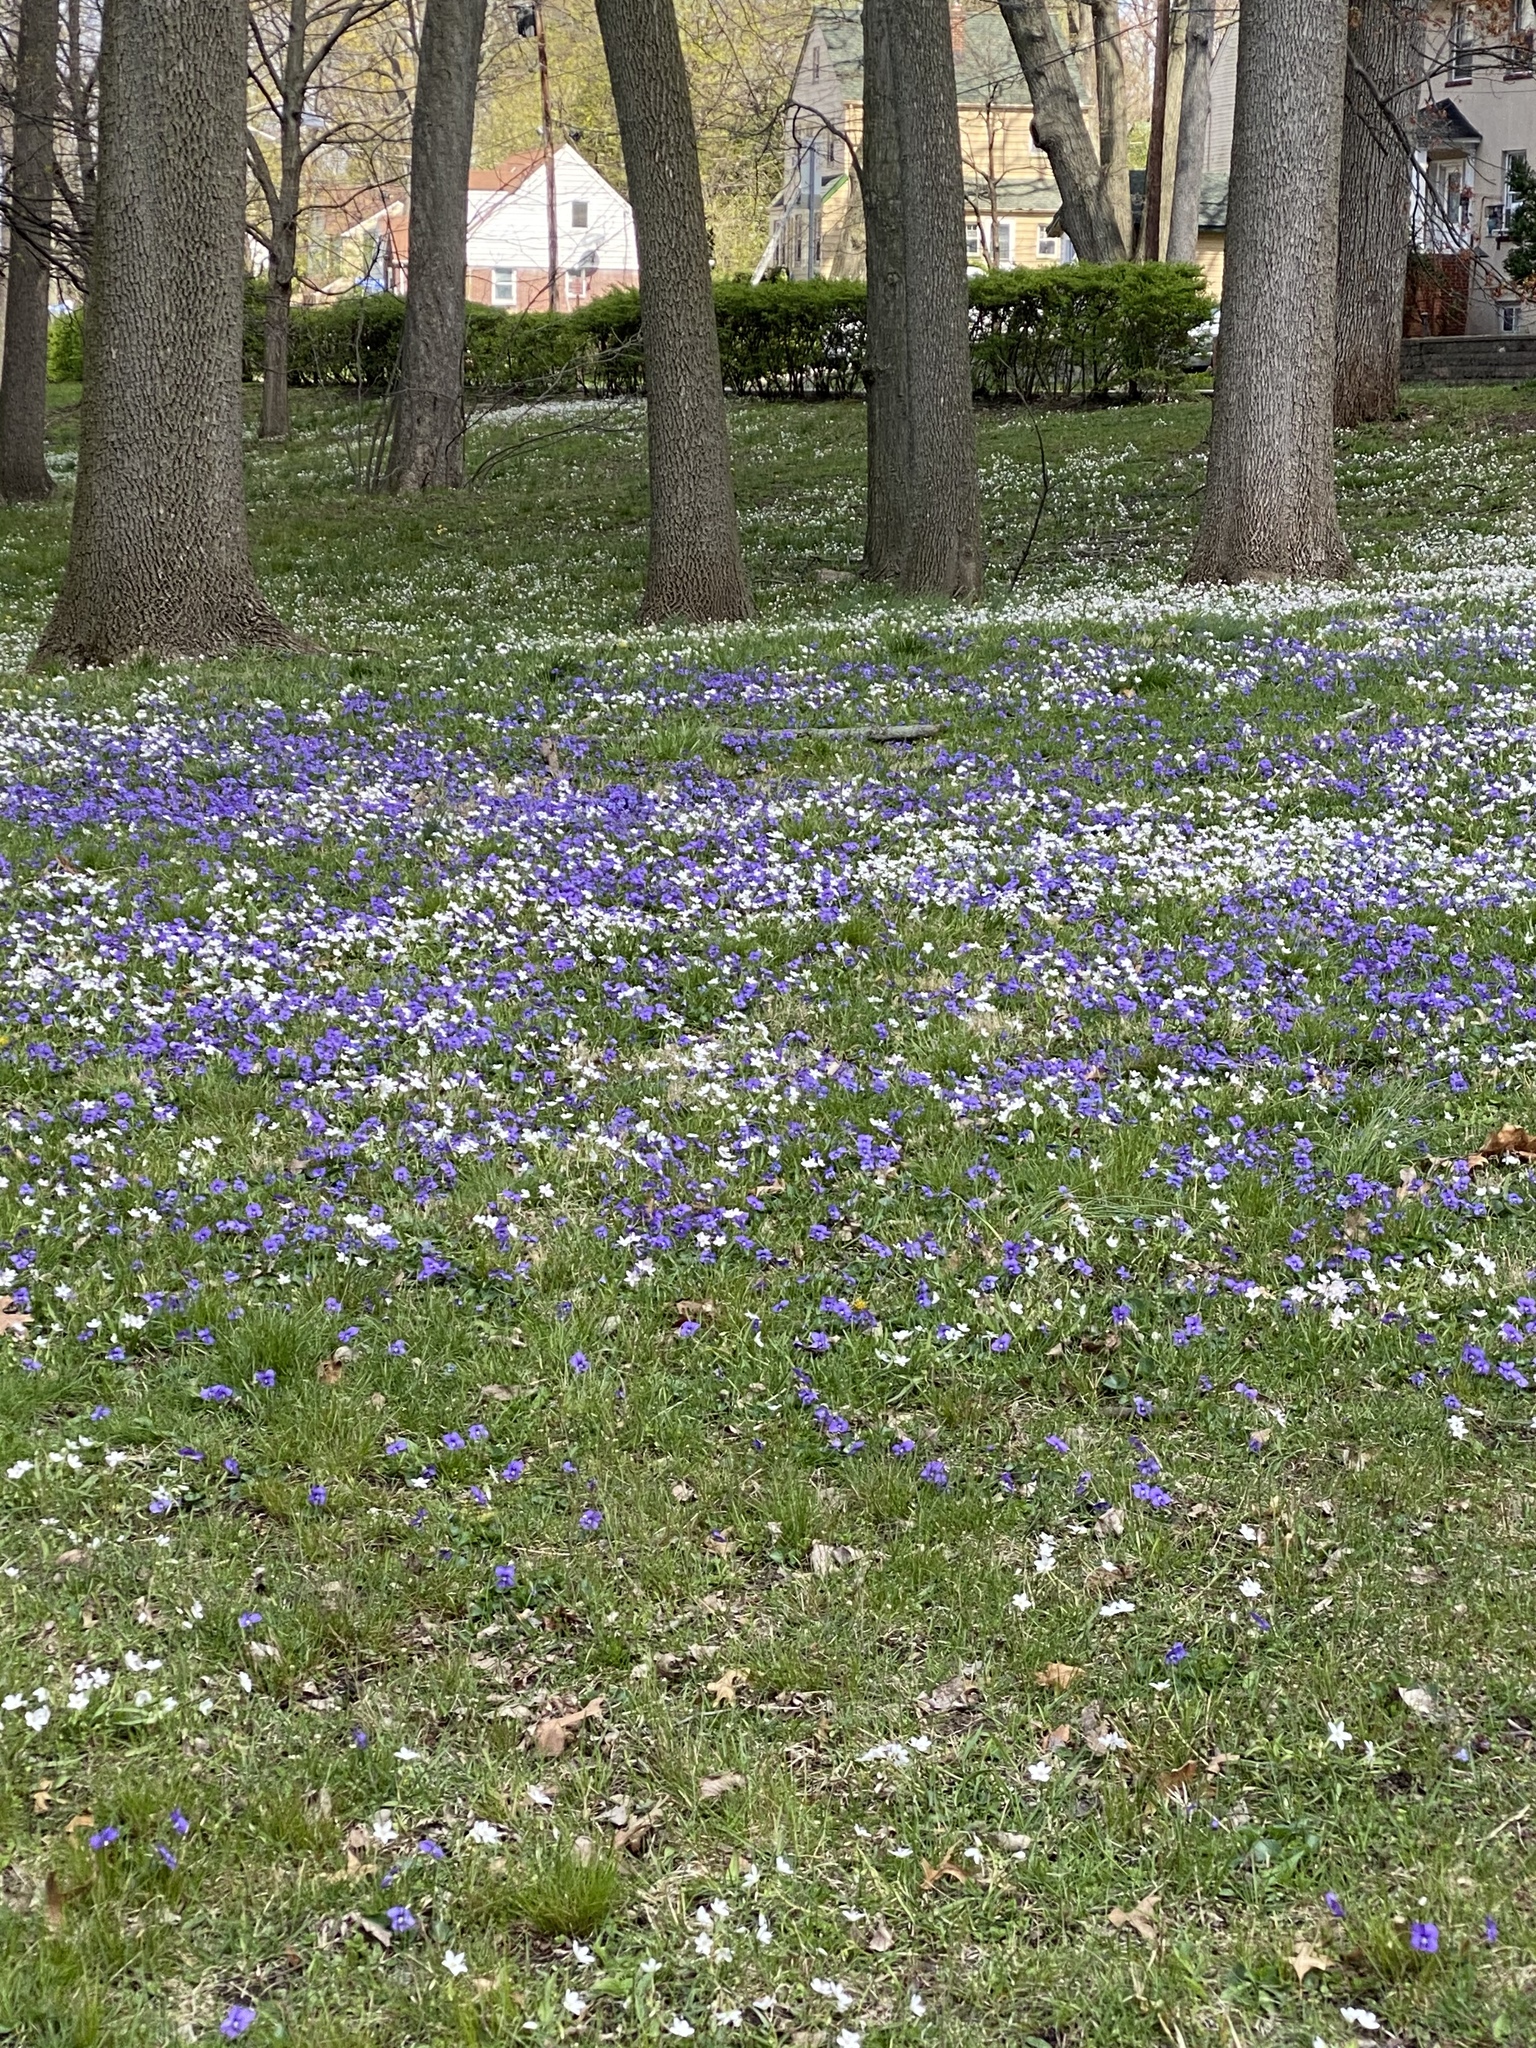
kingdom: Plantae
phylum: Tracheophyta
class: Magnoliopsida
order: Malpighiales
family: Violaceae
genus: Viola
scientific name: Viola sororia
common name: Dooryard violet
